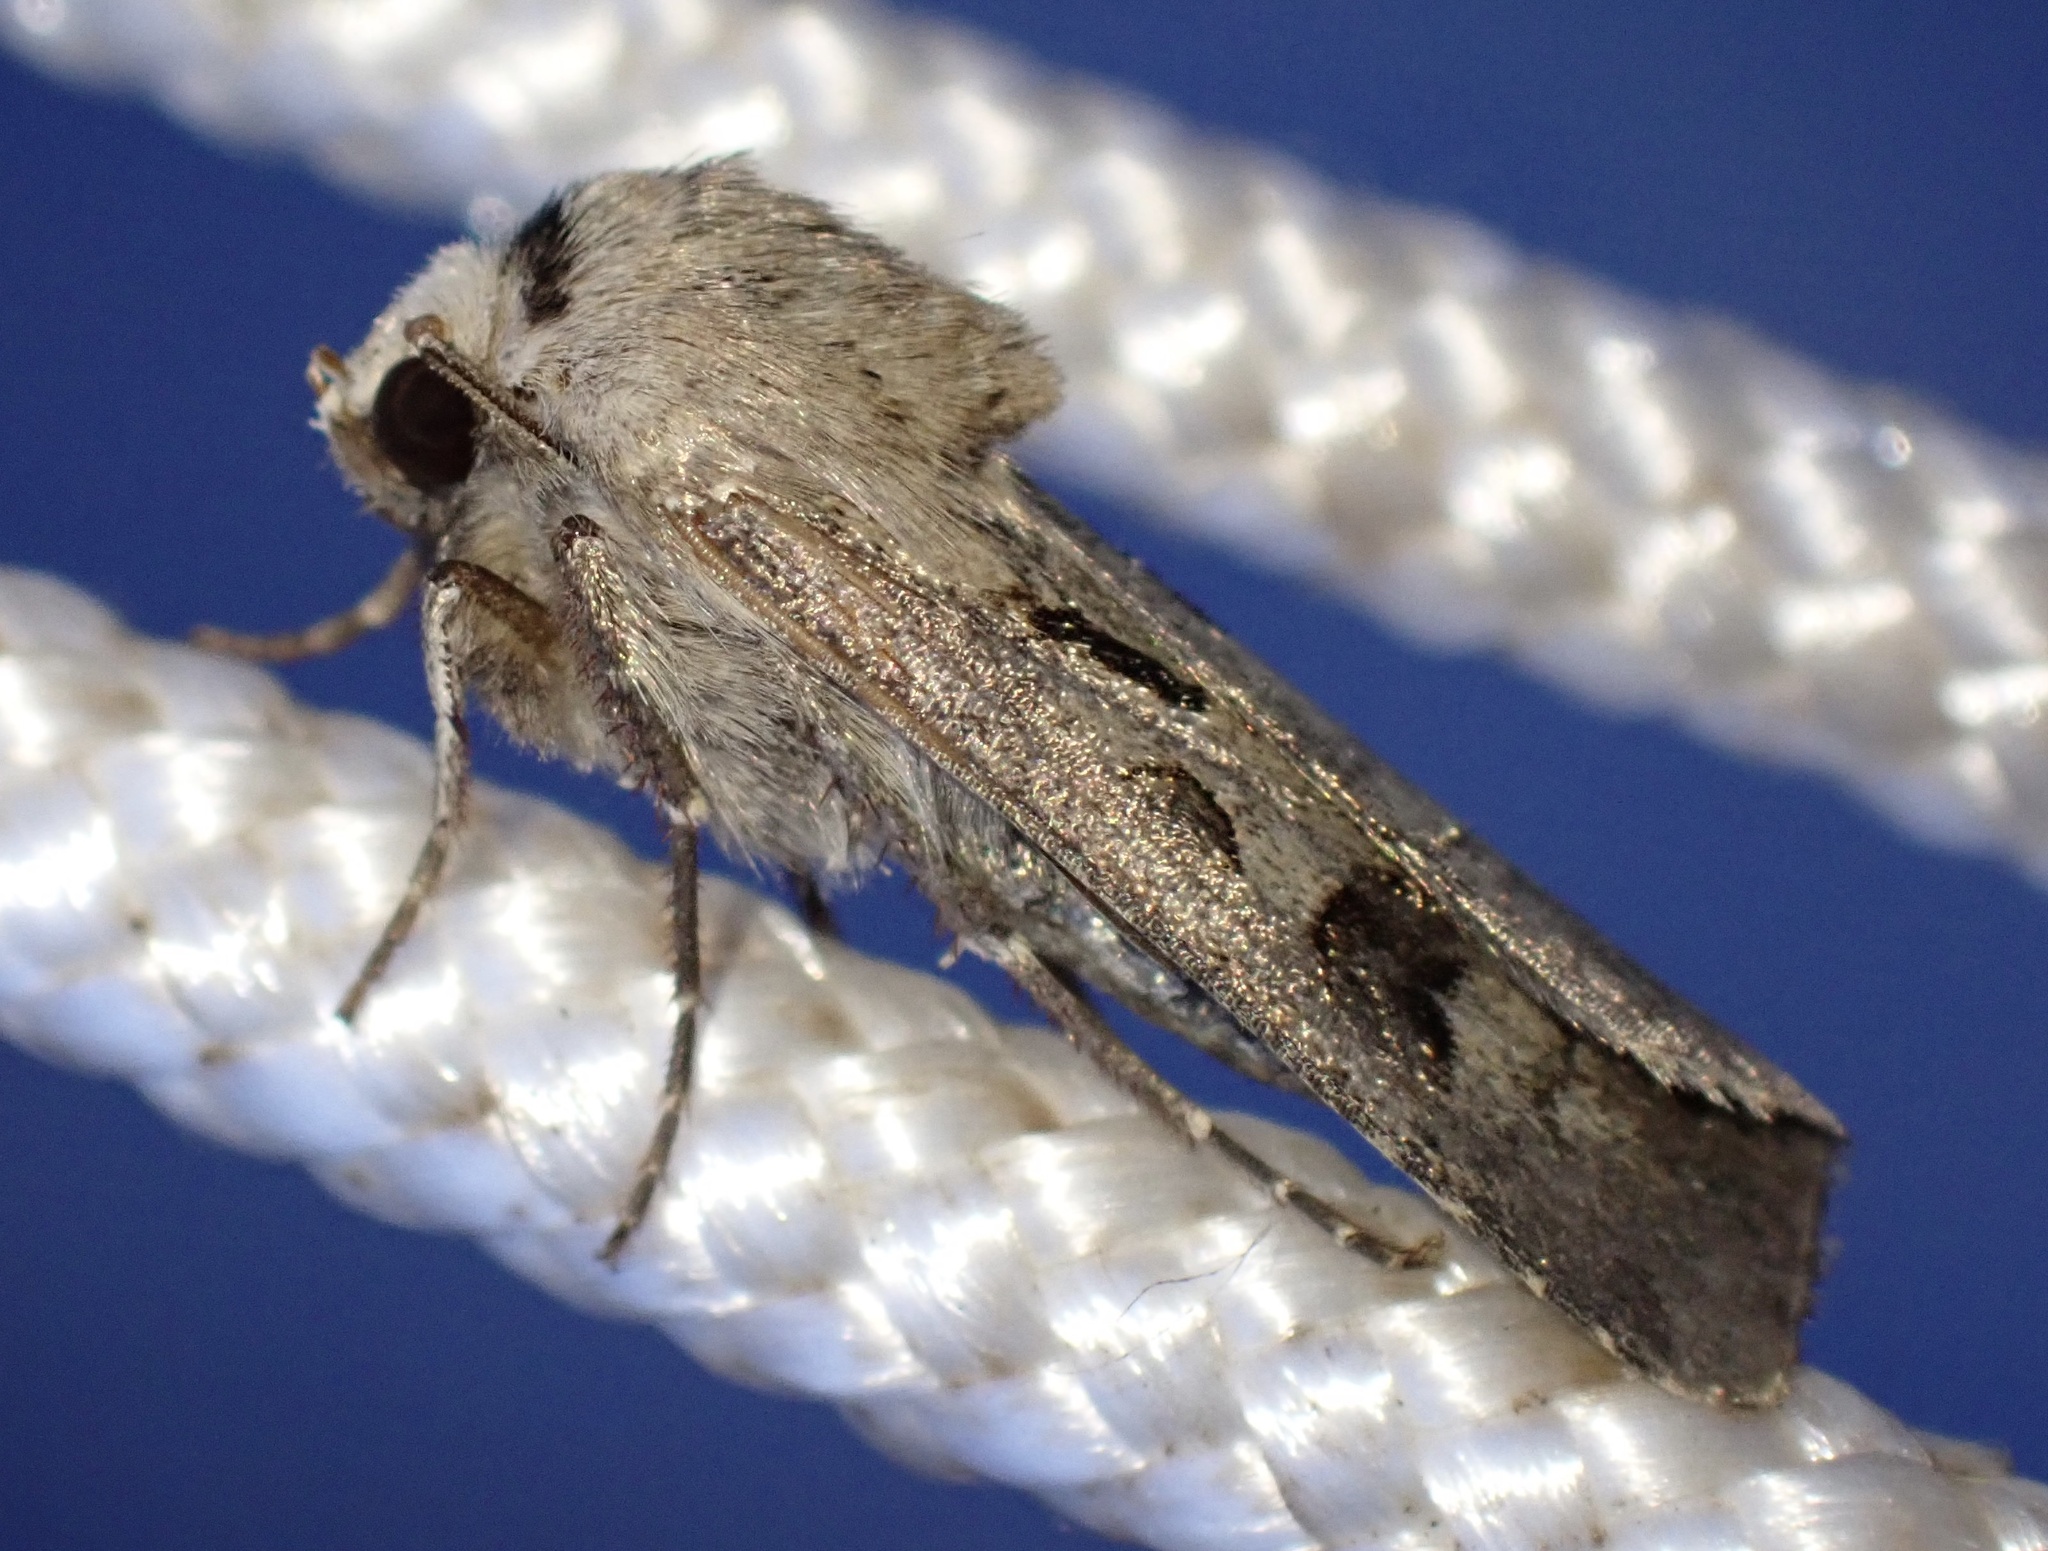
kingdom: Animalia
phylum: Arthropoda
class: Insecta
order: Lepidoptera
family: Noctuidae
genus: Agrotis
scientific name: Agrotis exclamationis
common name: Heart and dart
